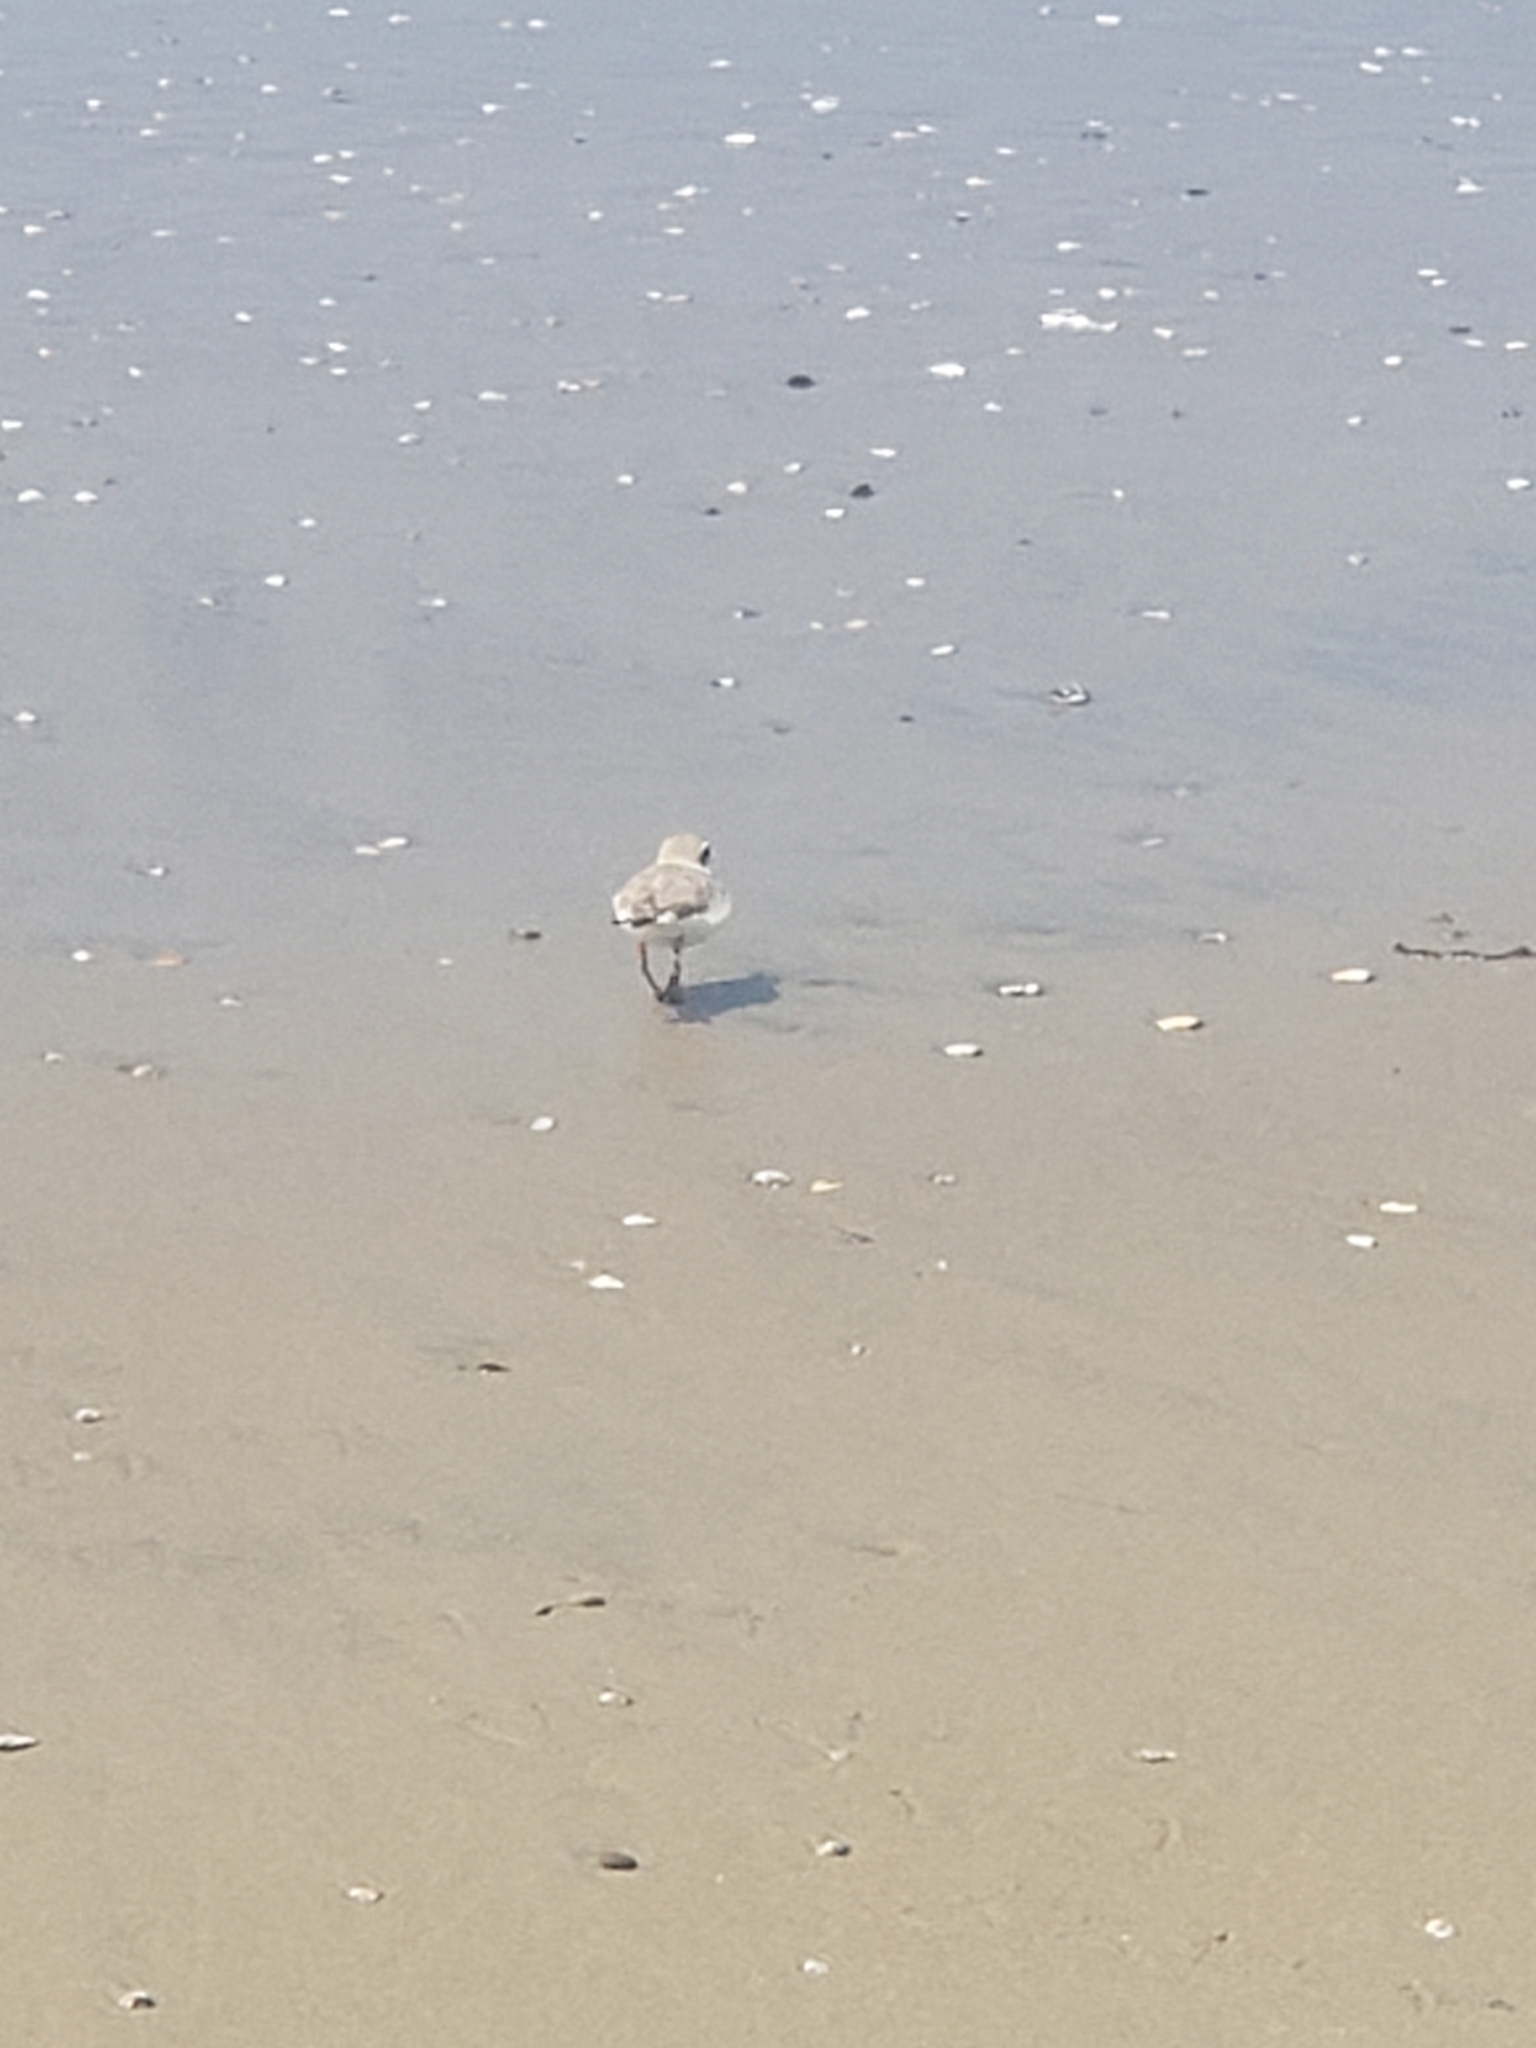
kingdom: Animalia
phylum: Chordata
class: Aves
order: Charadriiformes
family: Charadriidae
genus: Anarhynchus
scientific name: Anarhynchus
